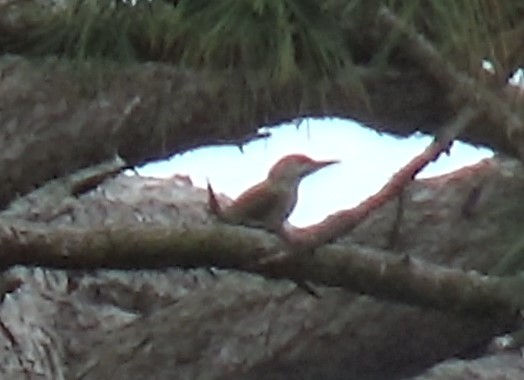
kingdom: Animalia
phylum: Chordata
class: Aves
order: Piciformes
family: Picidae
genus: Picus
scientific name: Picus viridis
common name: European green woodpecker
